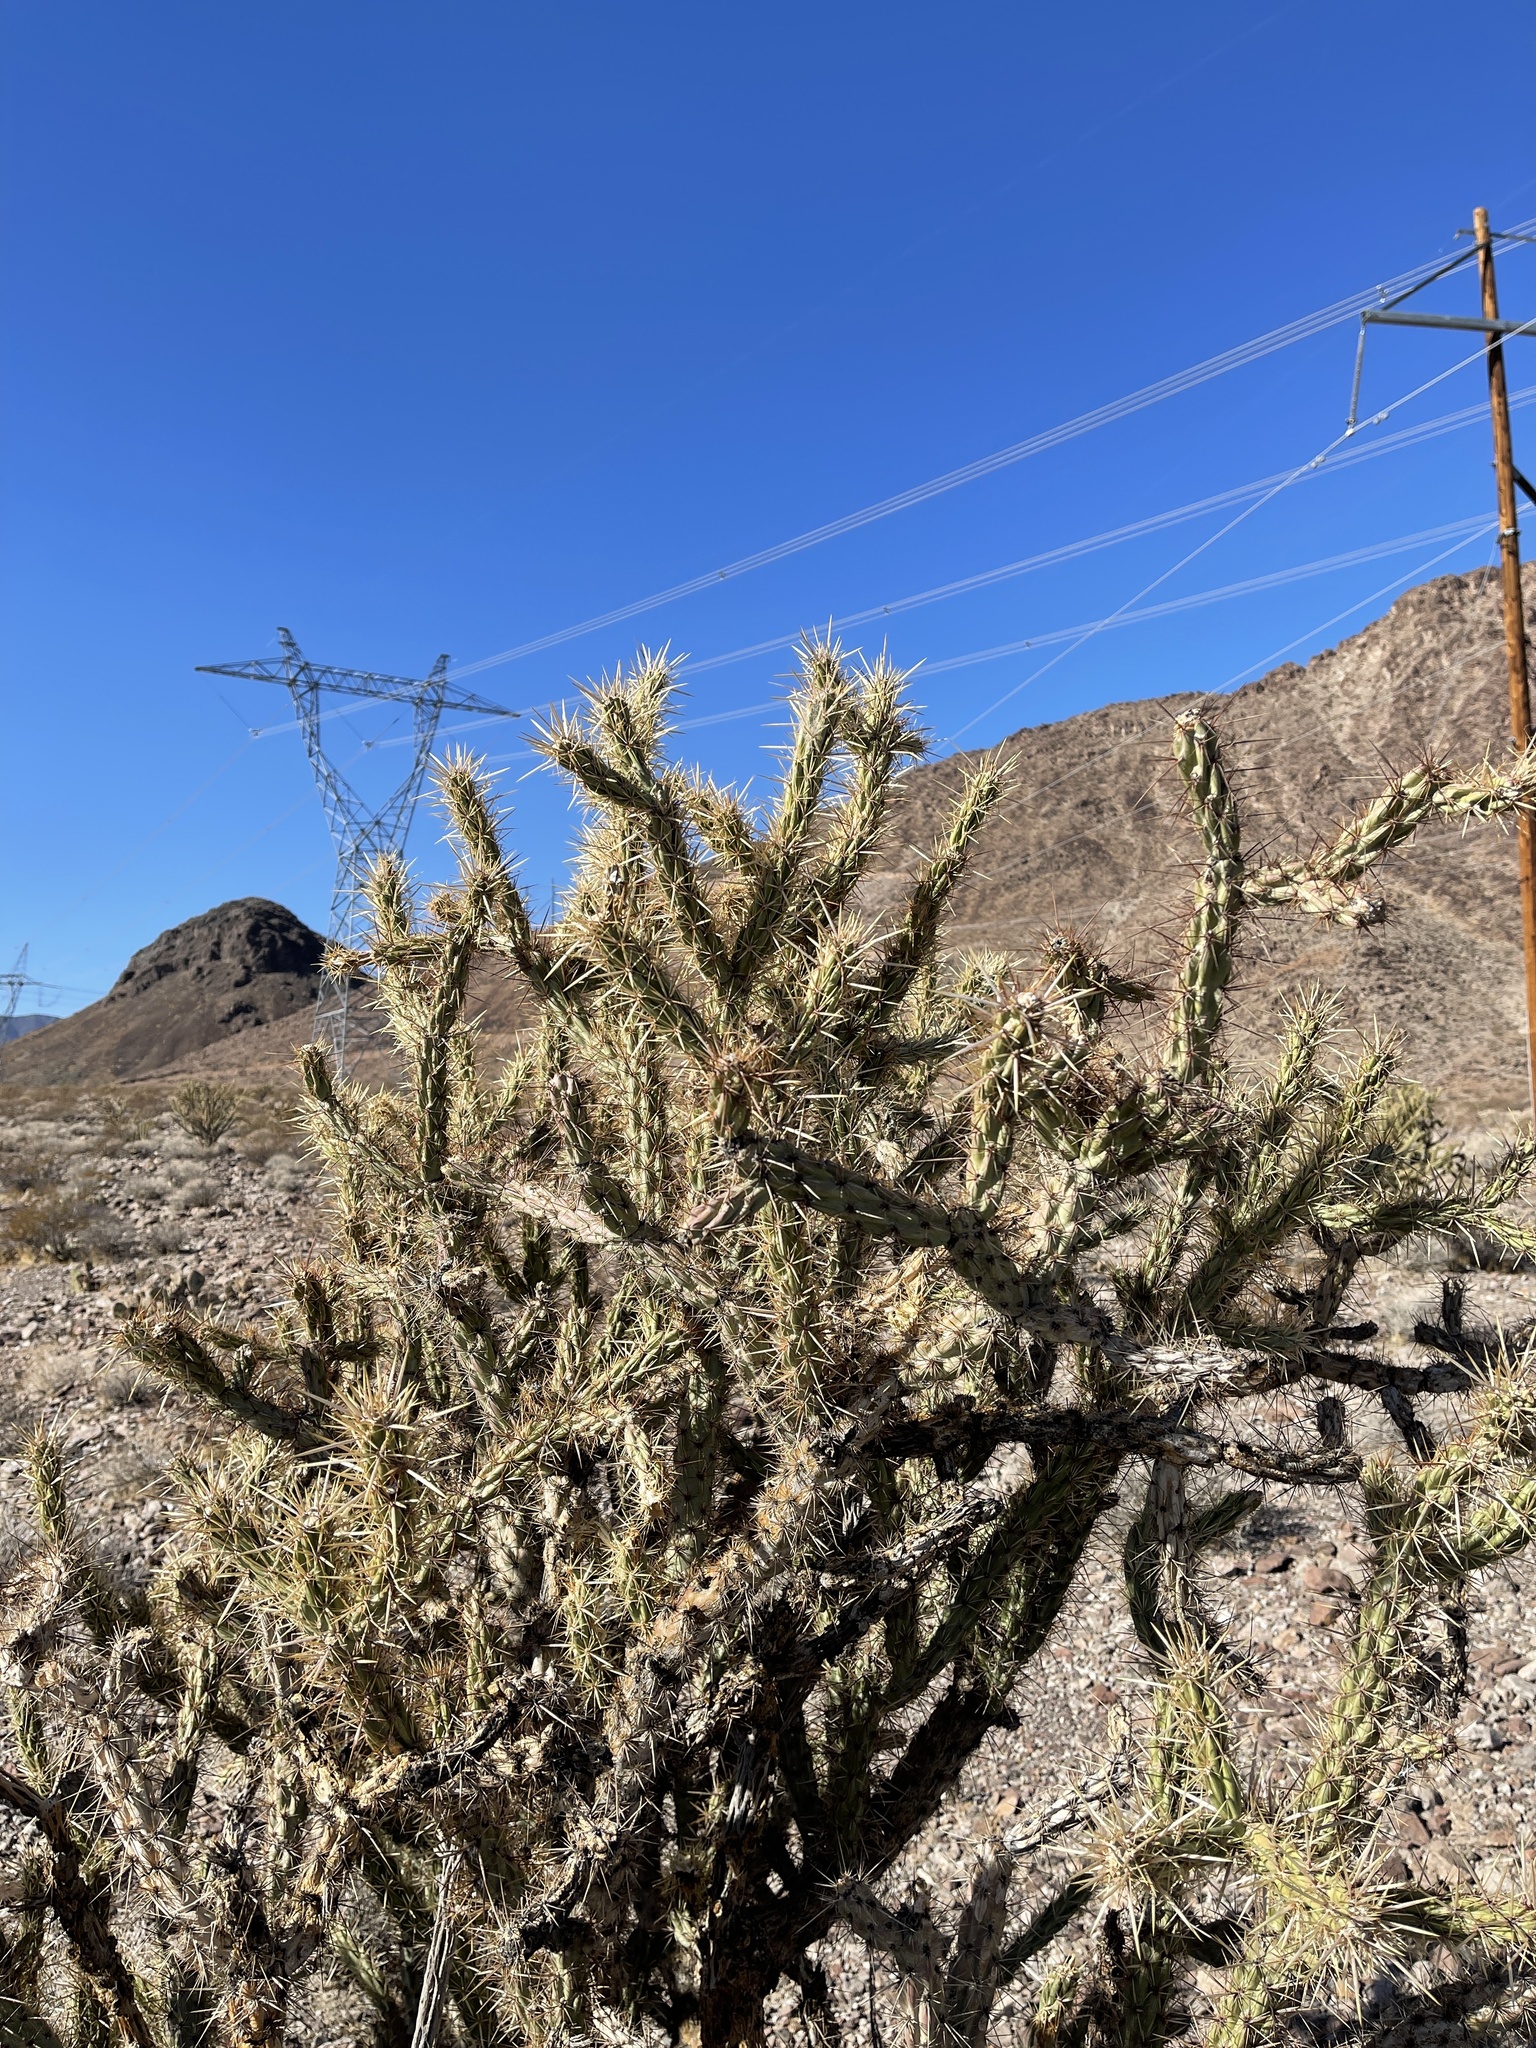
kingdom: Plantae
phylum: Tracheophyta
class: Magnoliopsida
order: Caryophyllales
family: Cactaceae
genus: Cylindropuntia
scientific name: Cylindropuntia acanthocarpa
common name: Buckhorn cholla
